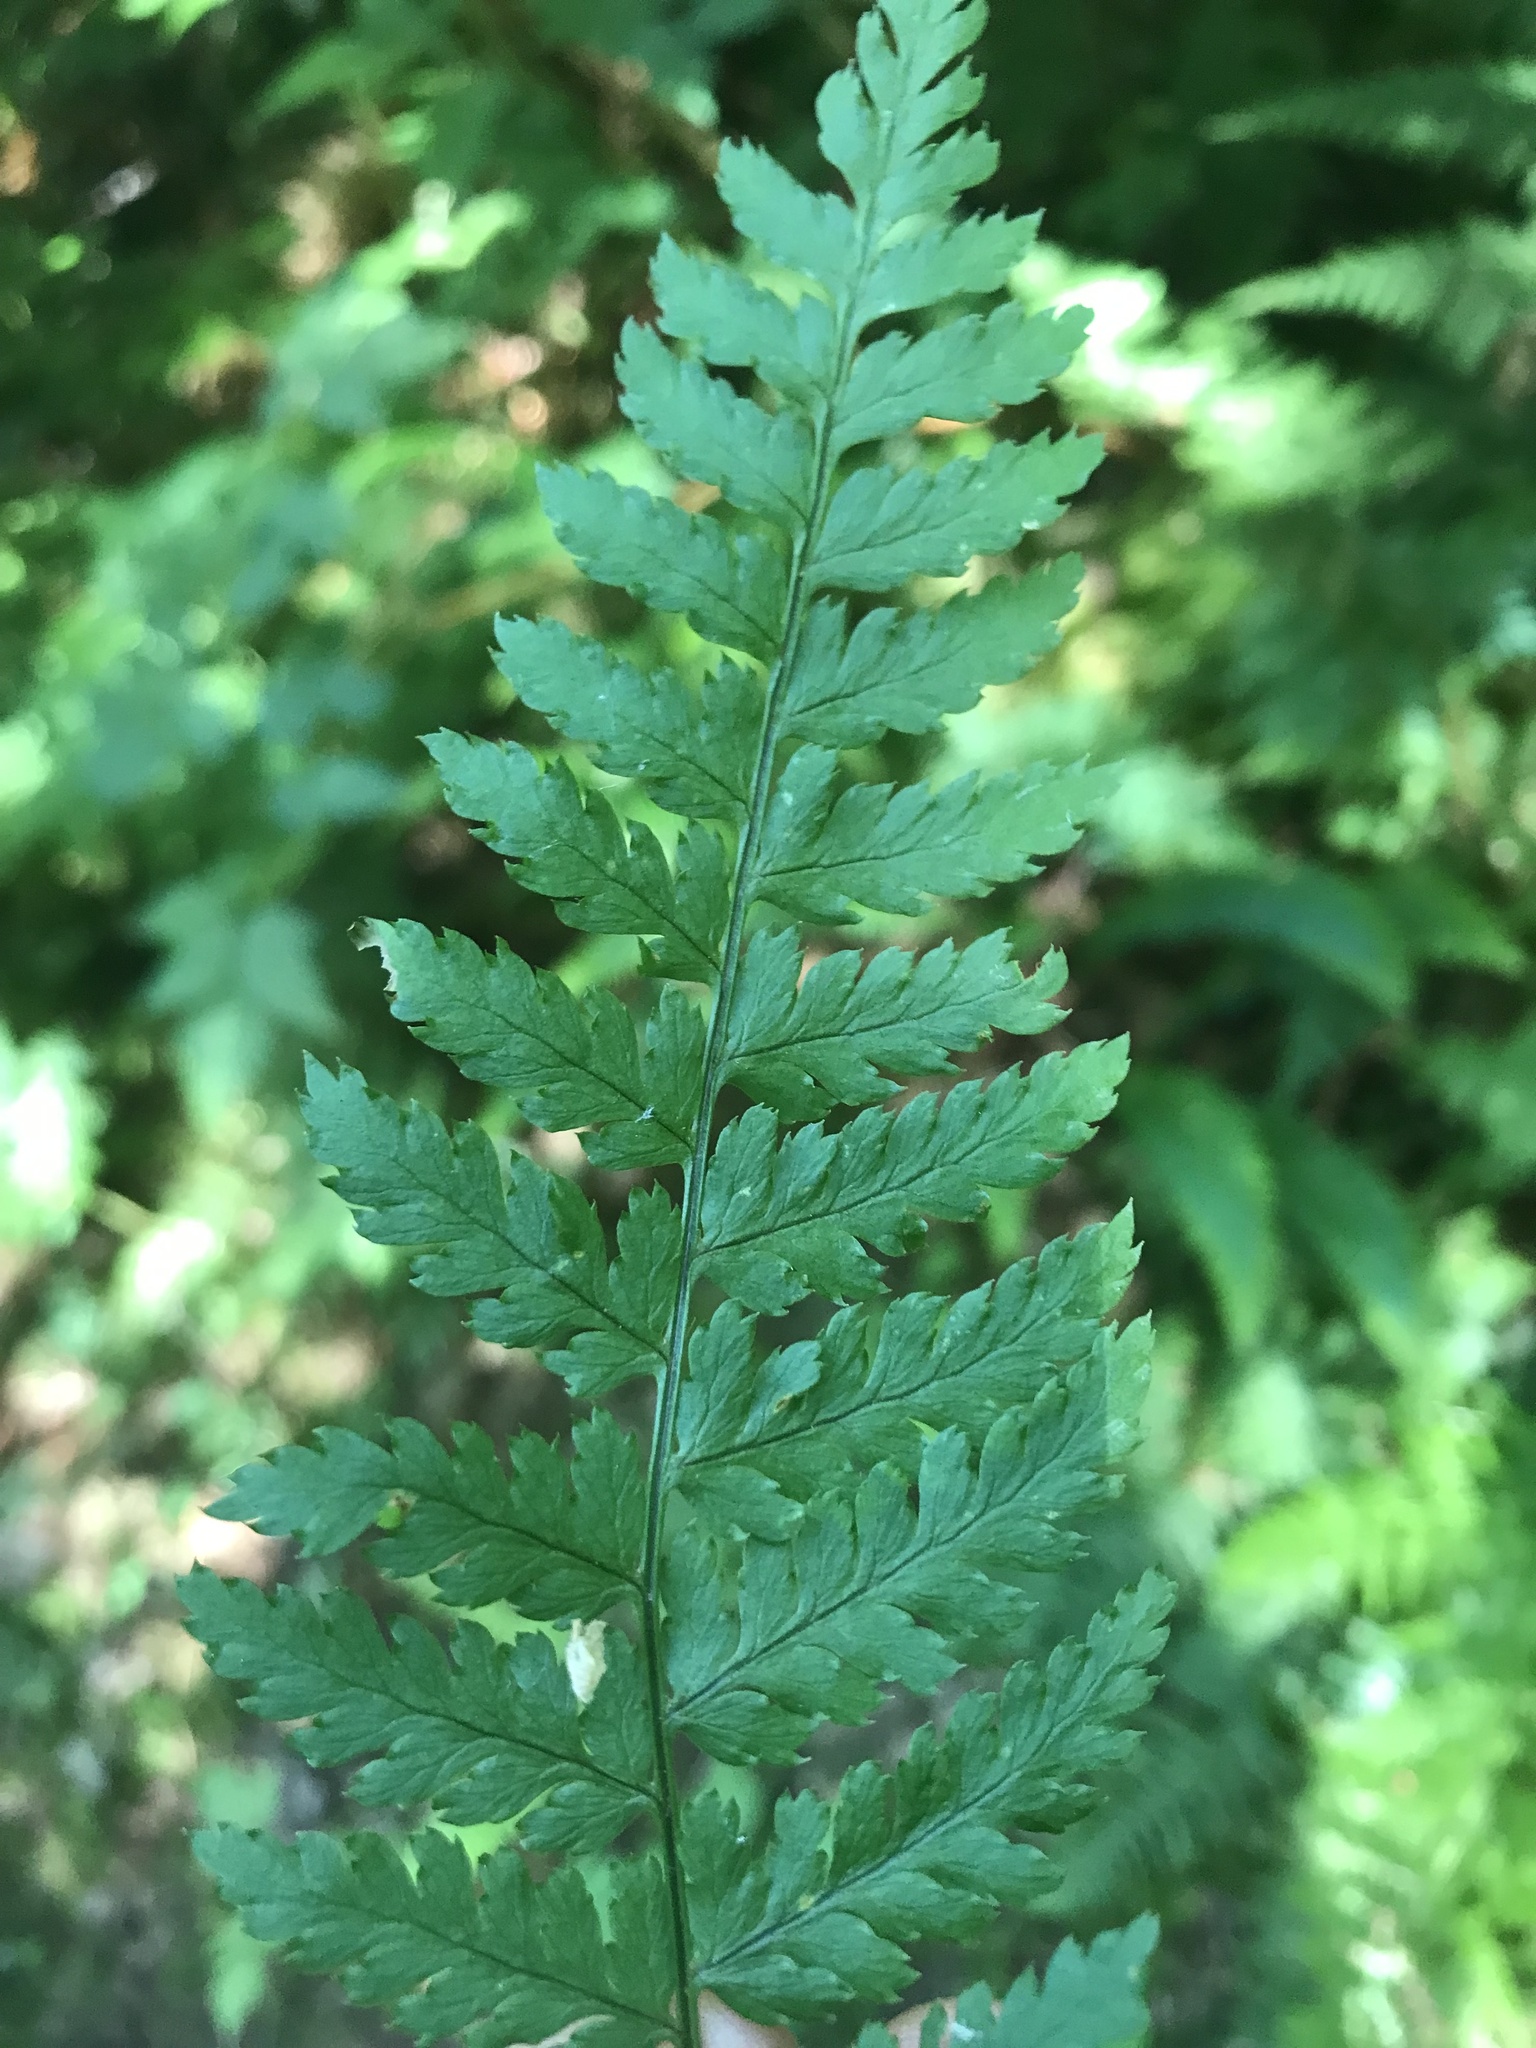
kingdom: Plantae
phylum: Tracheophyta
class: Polypodiopsida
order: Polypodiales
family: Dryopteridaceae
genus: Dryopteris
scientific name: Dryopteris expansa
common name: Northern buckler fern
